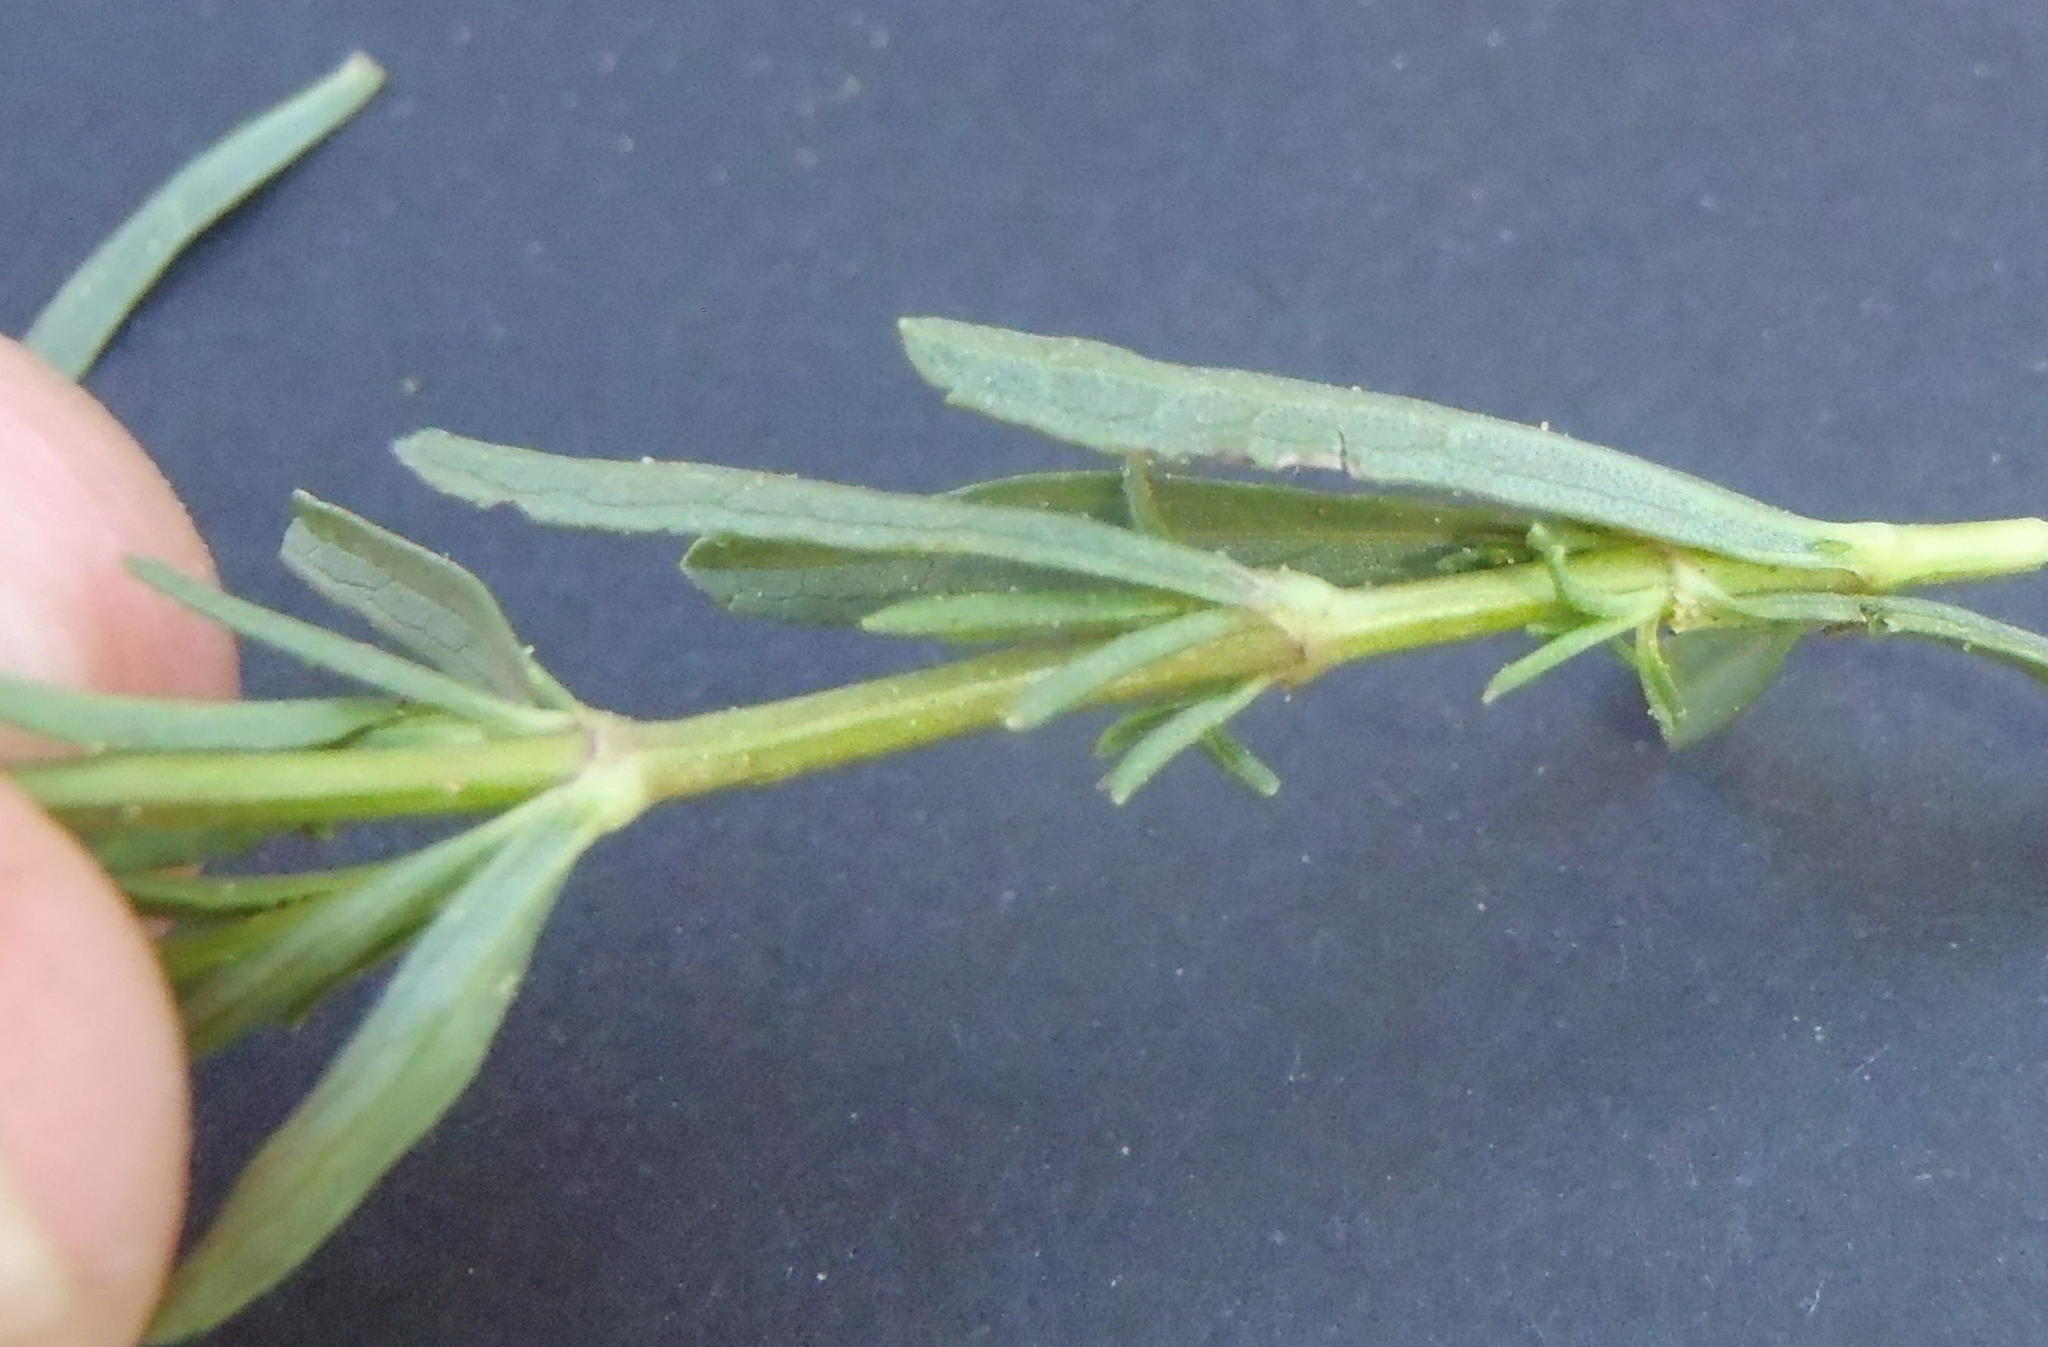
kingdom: Plantae
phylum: Tracheophyta
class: Magnoliopsida
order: Lamiales
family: Lamiaceae
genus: Stachys
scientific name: Stachys hyssopoides
